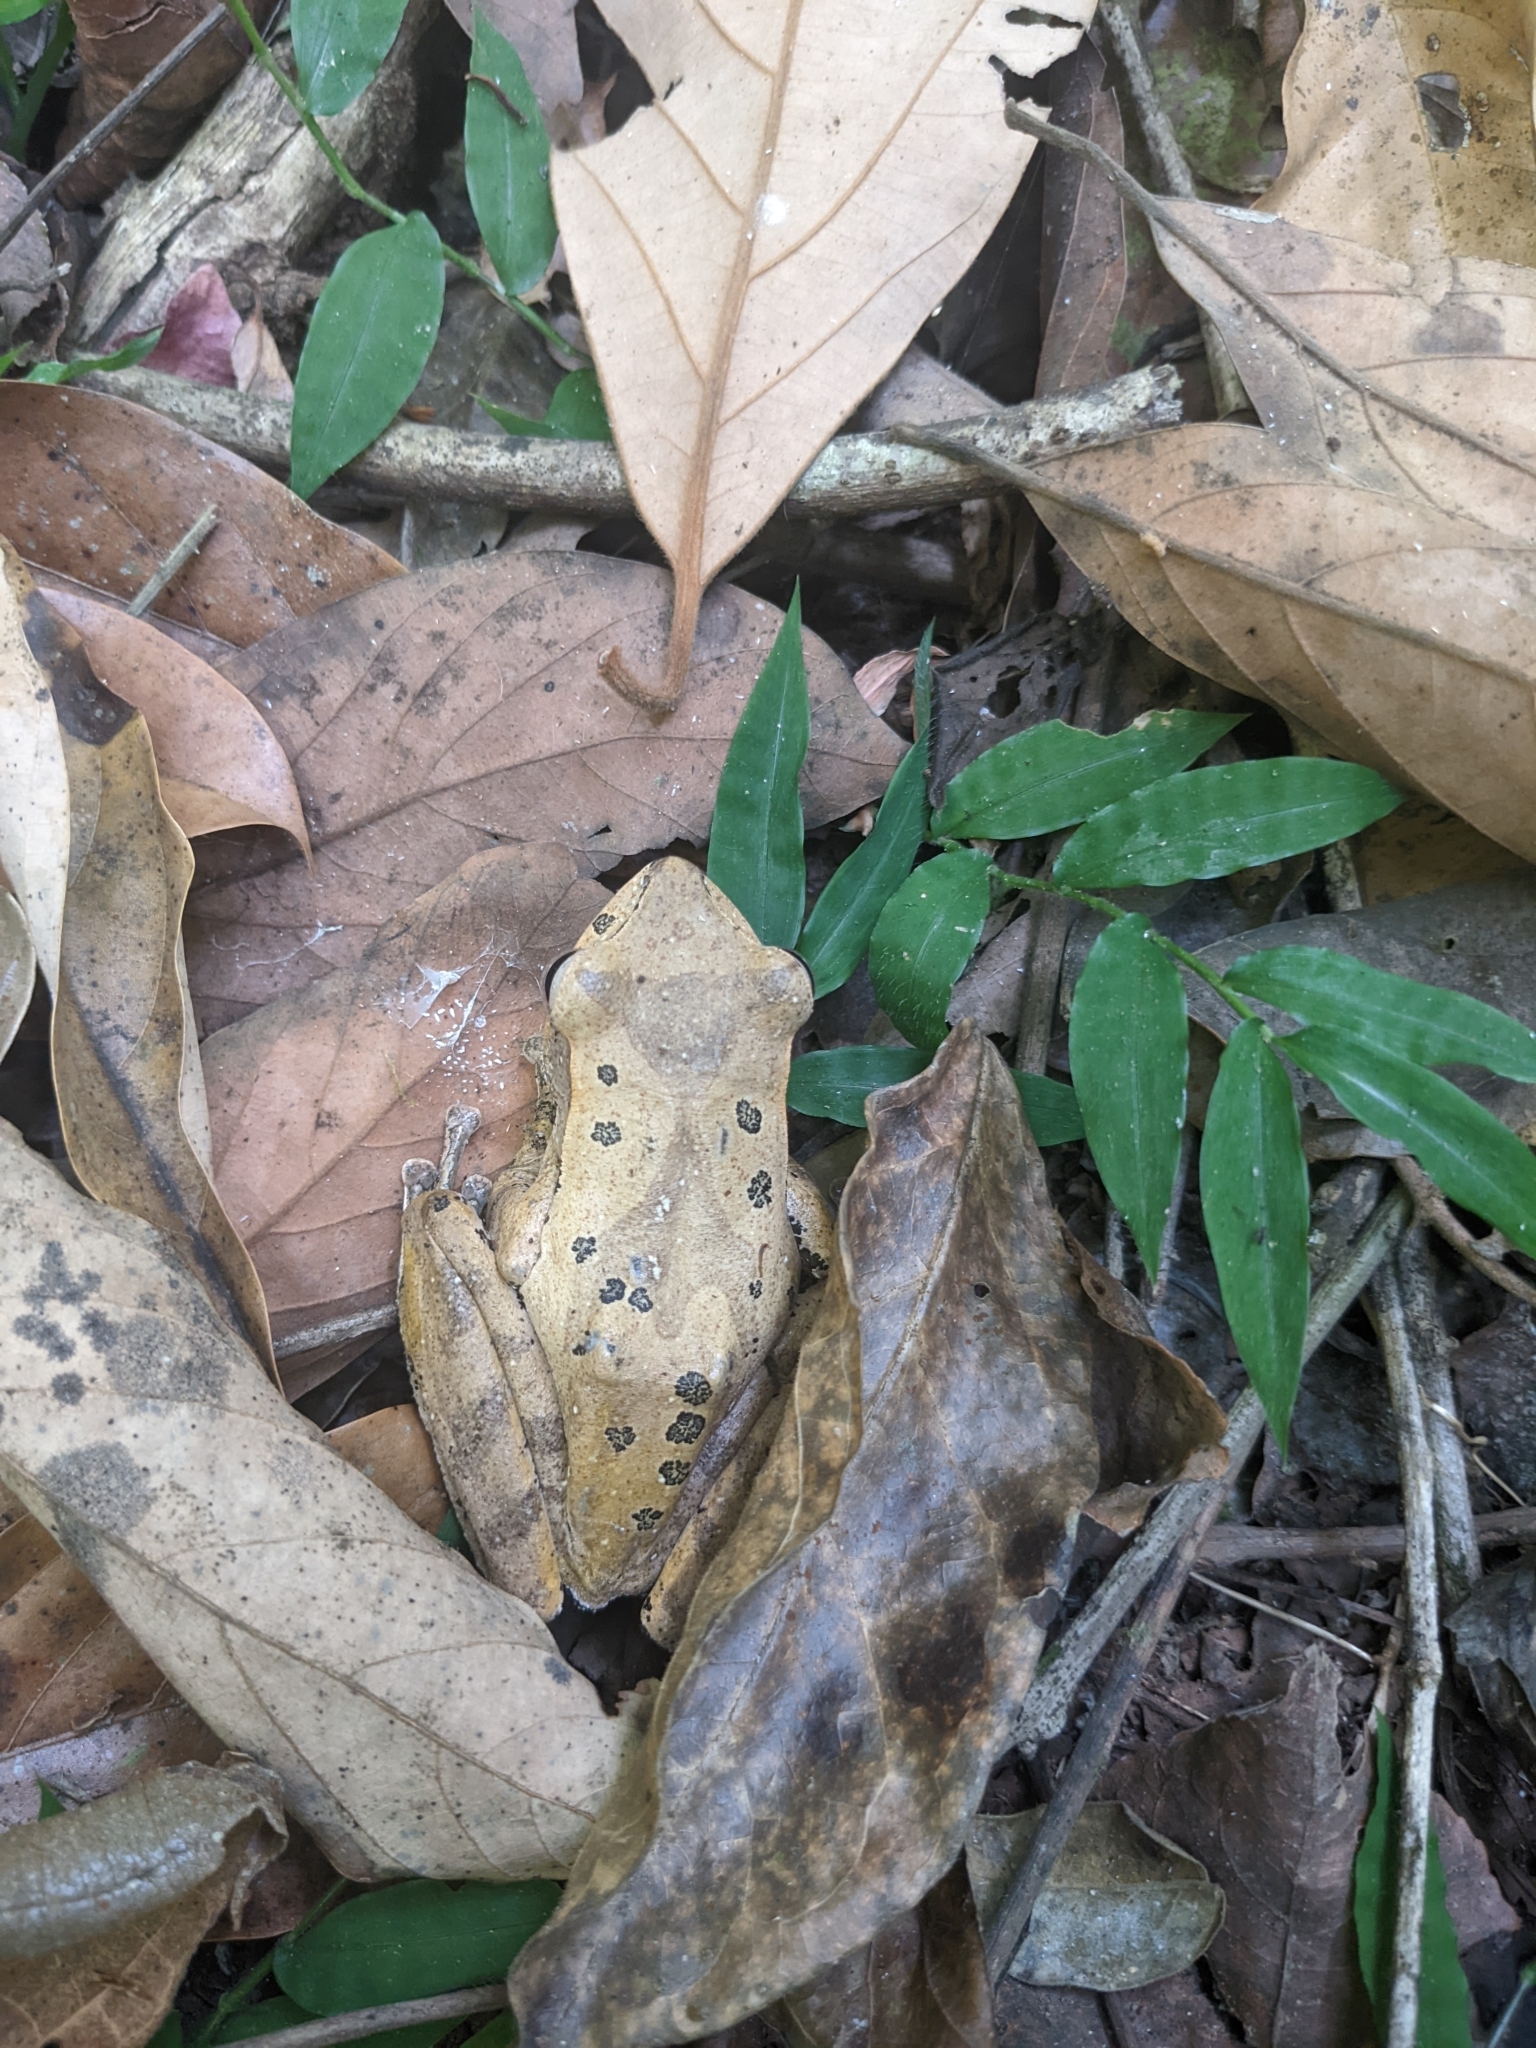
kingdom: Animalia
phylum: Chordata
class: Amphibia
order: Anura
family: Rhacophoridae
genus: Polypedates
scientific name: Polypedates occidentalis
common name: Charpa tree frog
